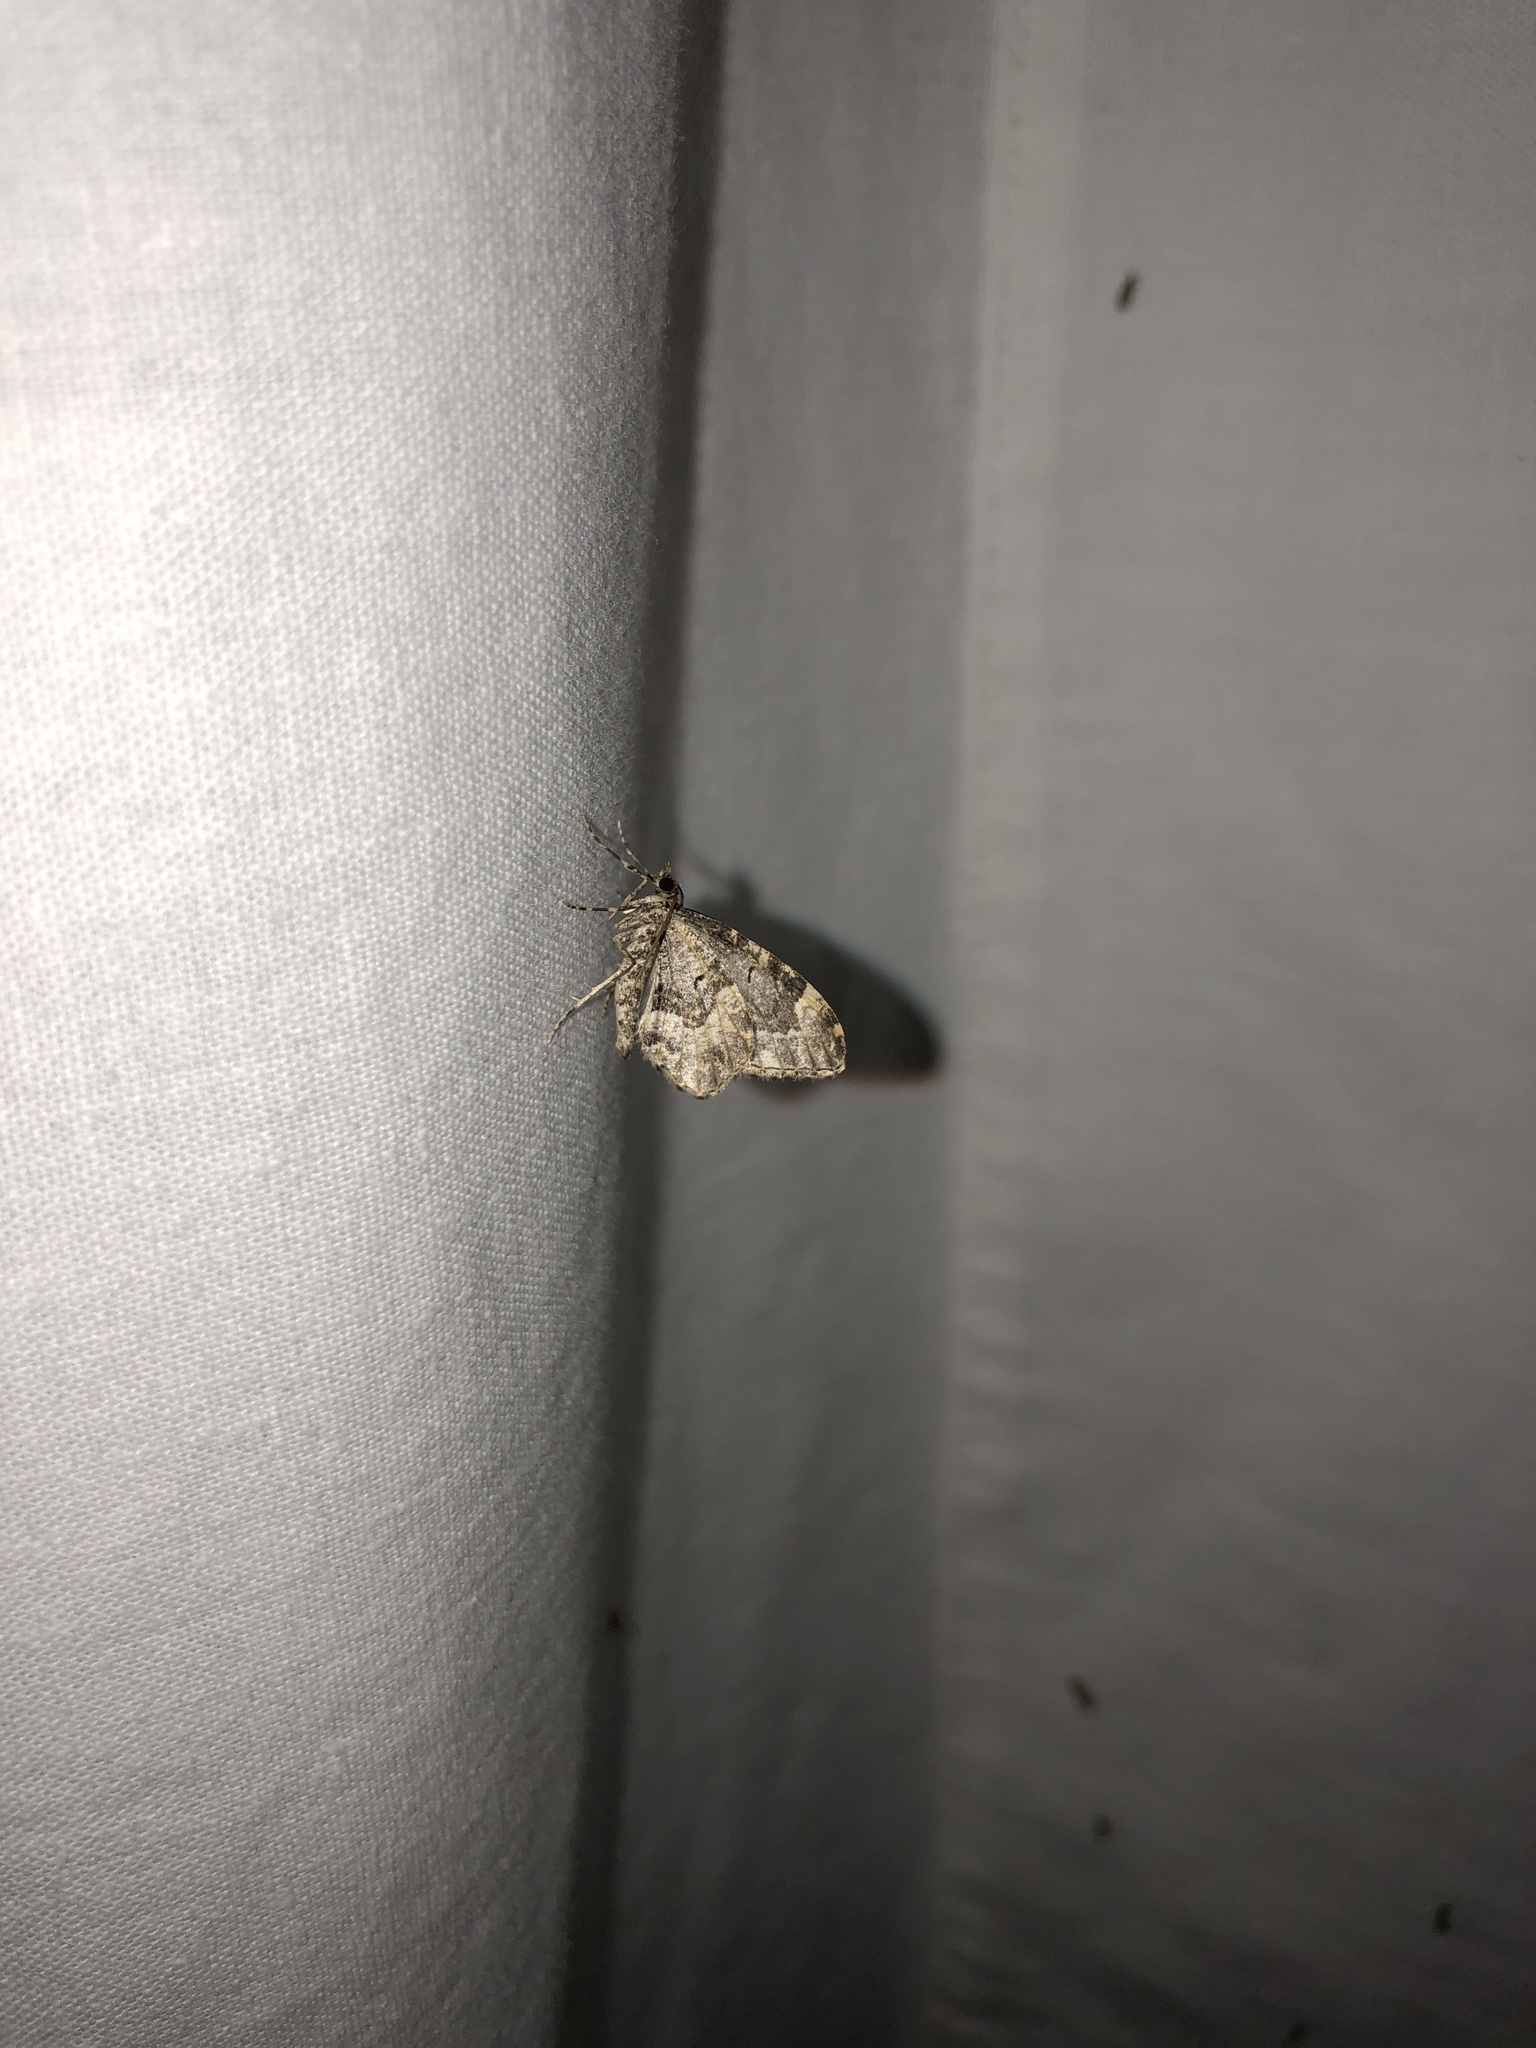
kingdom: Animalia
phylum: Arthropoda
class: Insecta
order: Lepidoptera
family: Geometridae
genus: Ceratodalia
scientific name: Ceratodalia gueneata
